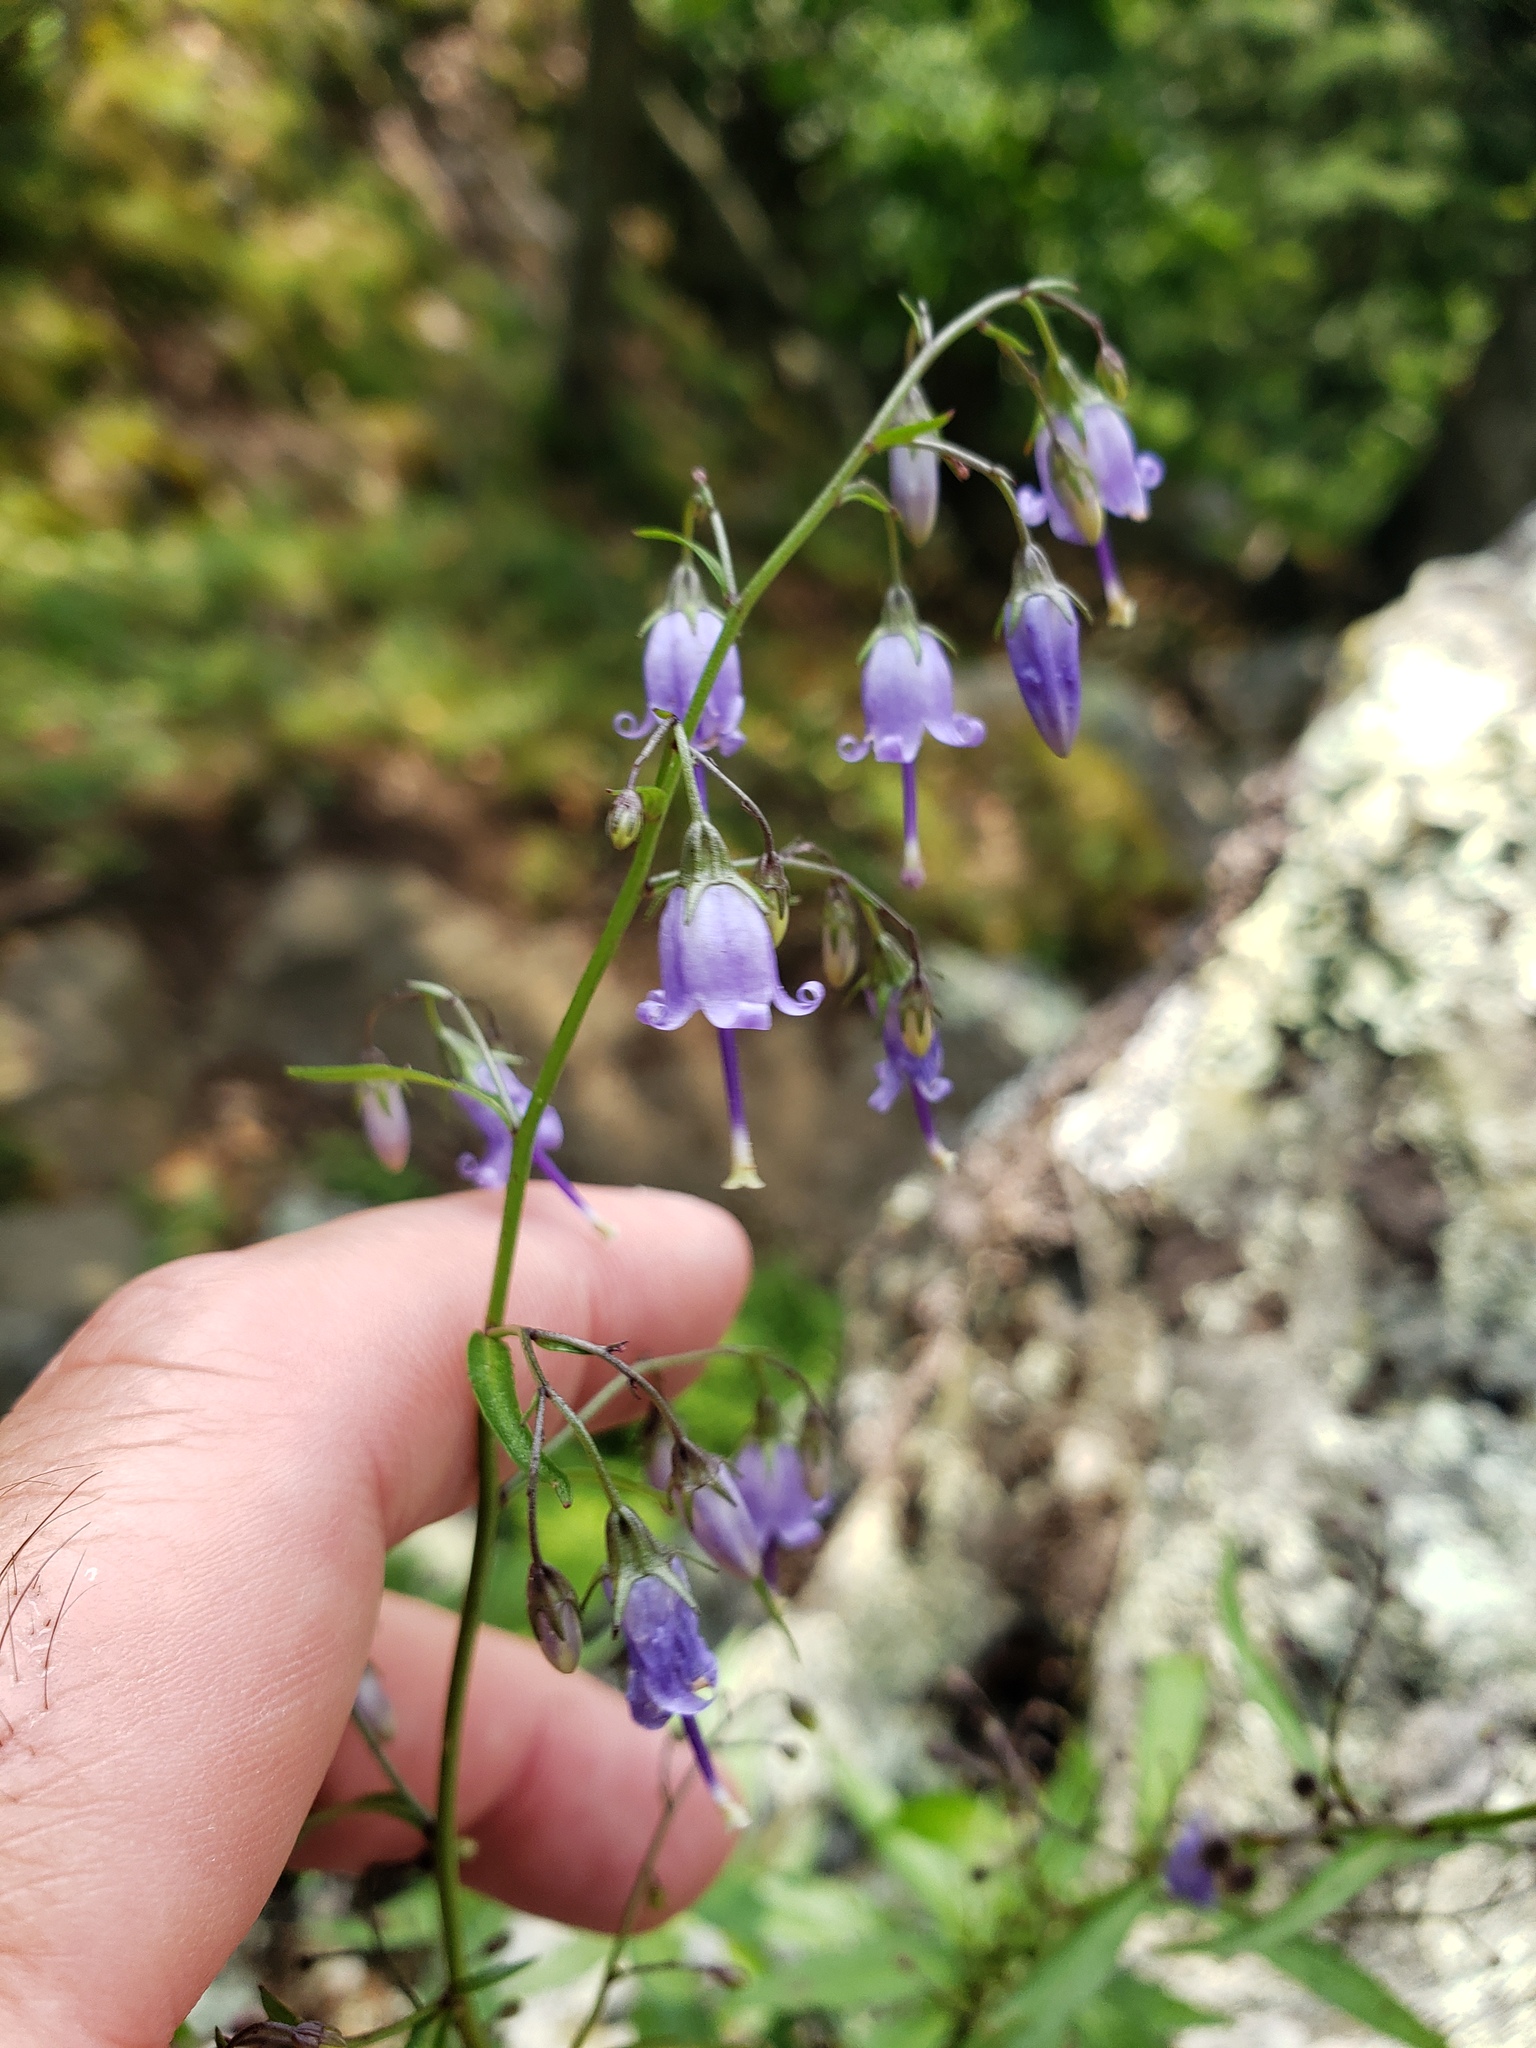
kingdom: Plantae
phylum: Tracheophyta
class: Magnoliopsida
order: Asterales
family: Campanulaceae
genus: Campanula
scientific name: Campanula divaricata
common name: Appalachian bellflower
